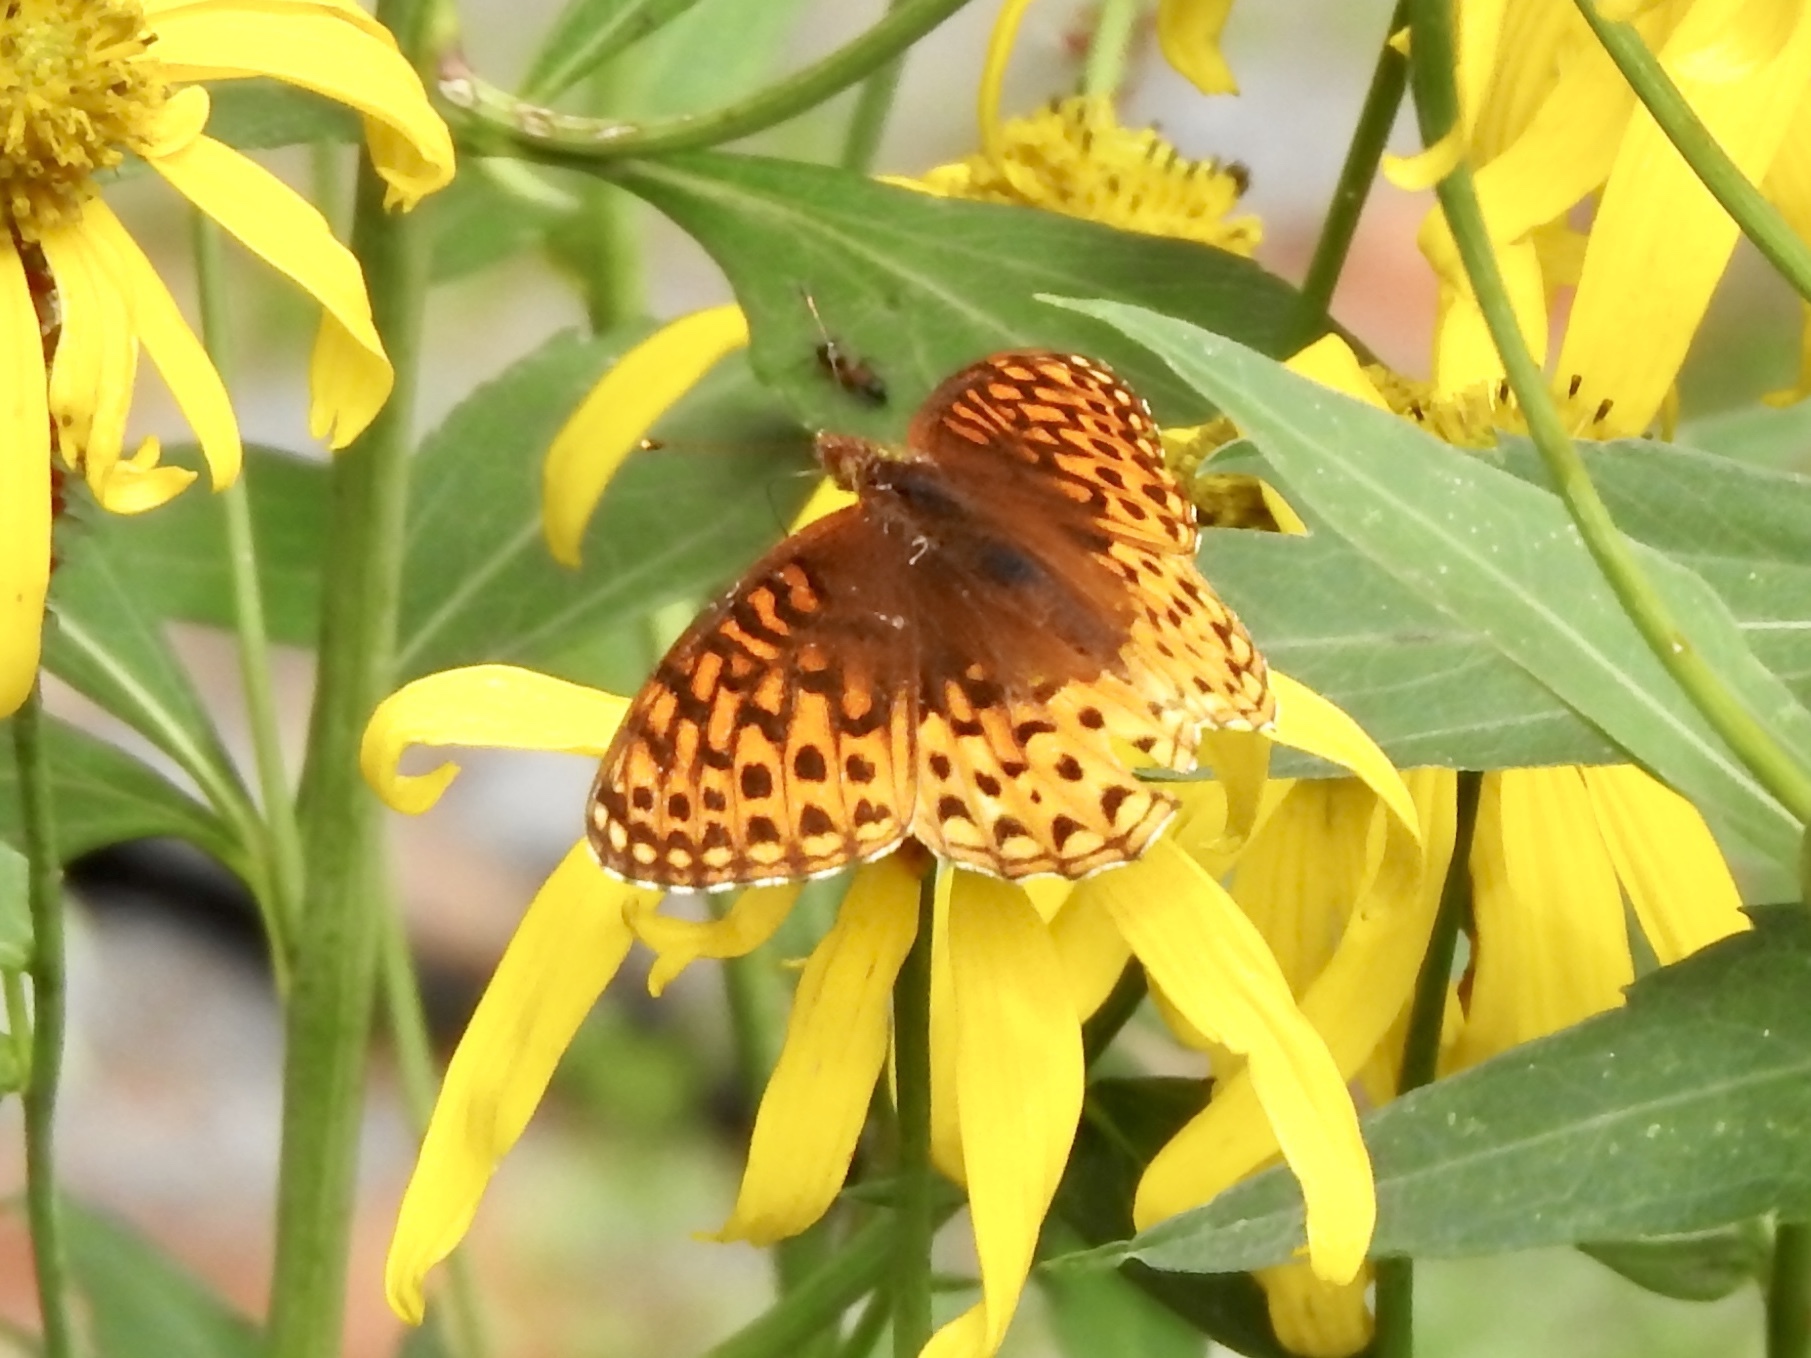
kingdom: Animalia
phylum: Arthropoda
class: Insecta
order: Lepidoptera
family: Nymphalidae
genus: Speyeria
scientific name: Speyeria atlantis
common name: Atlantis fritillary
